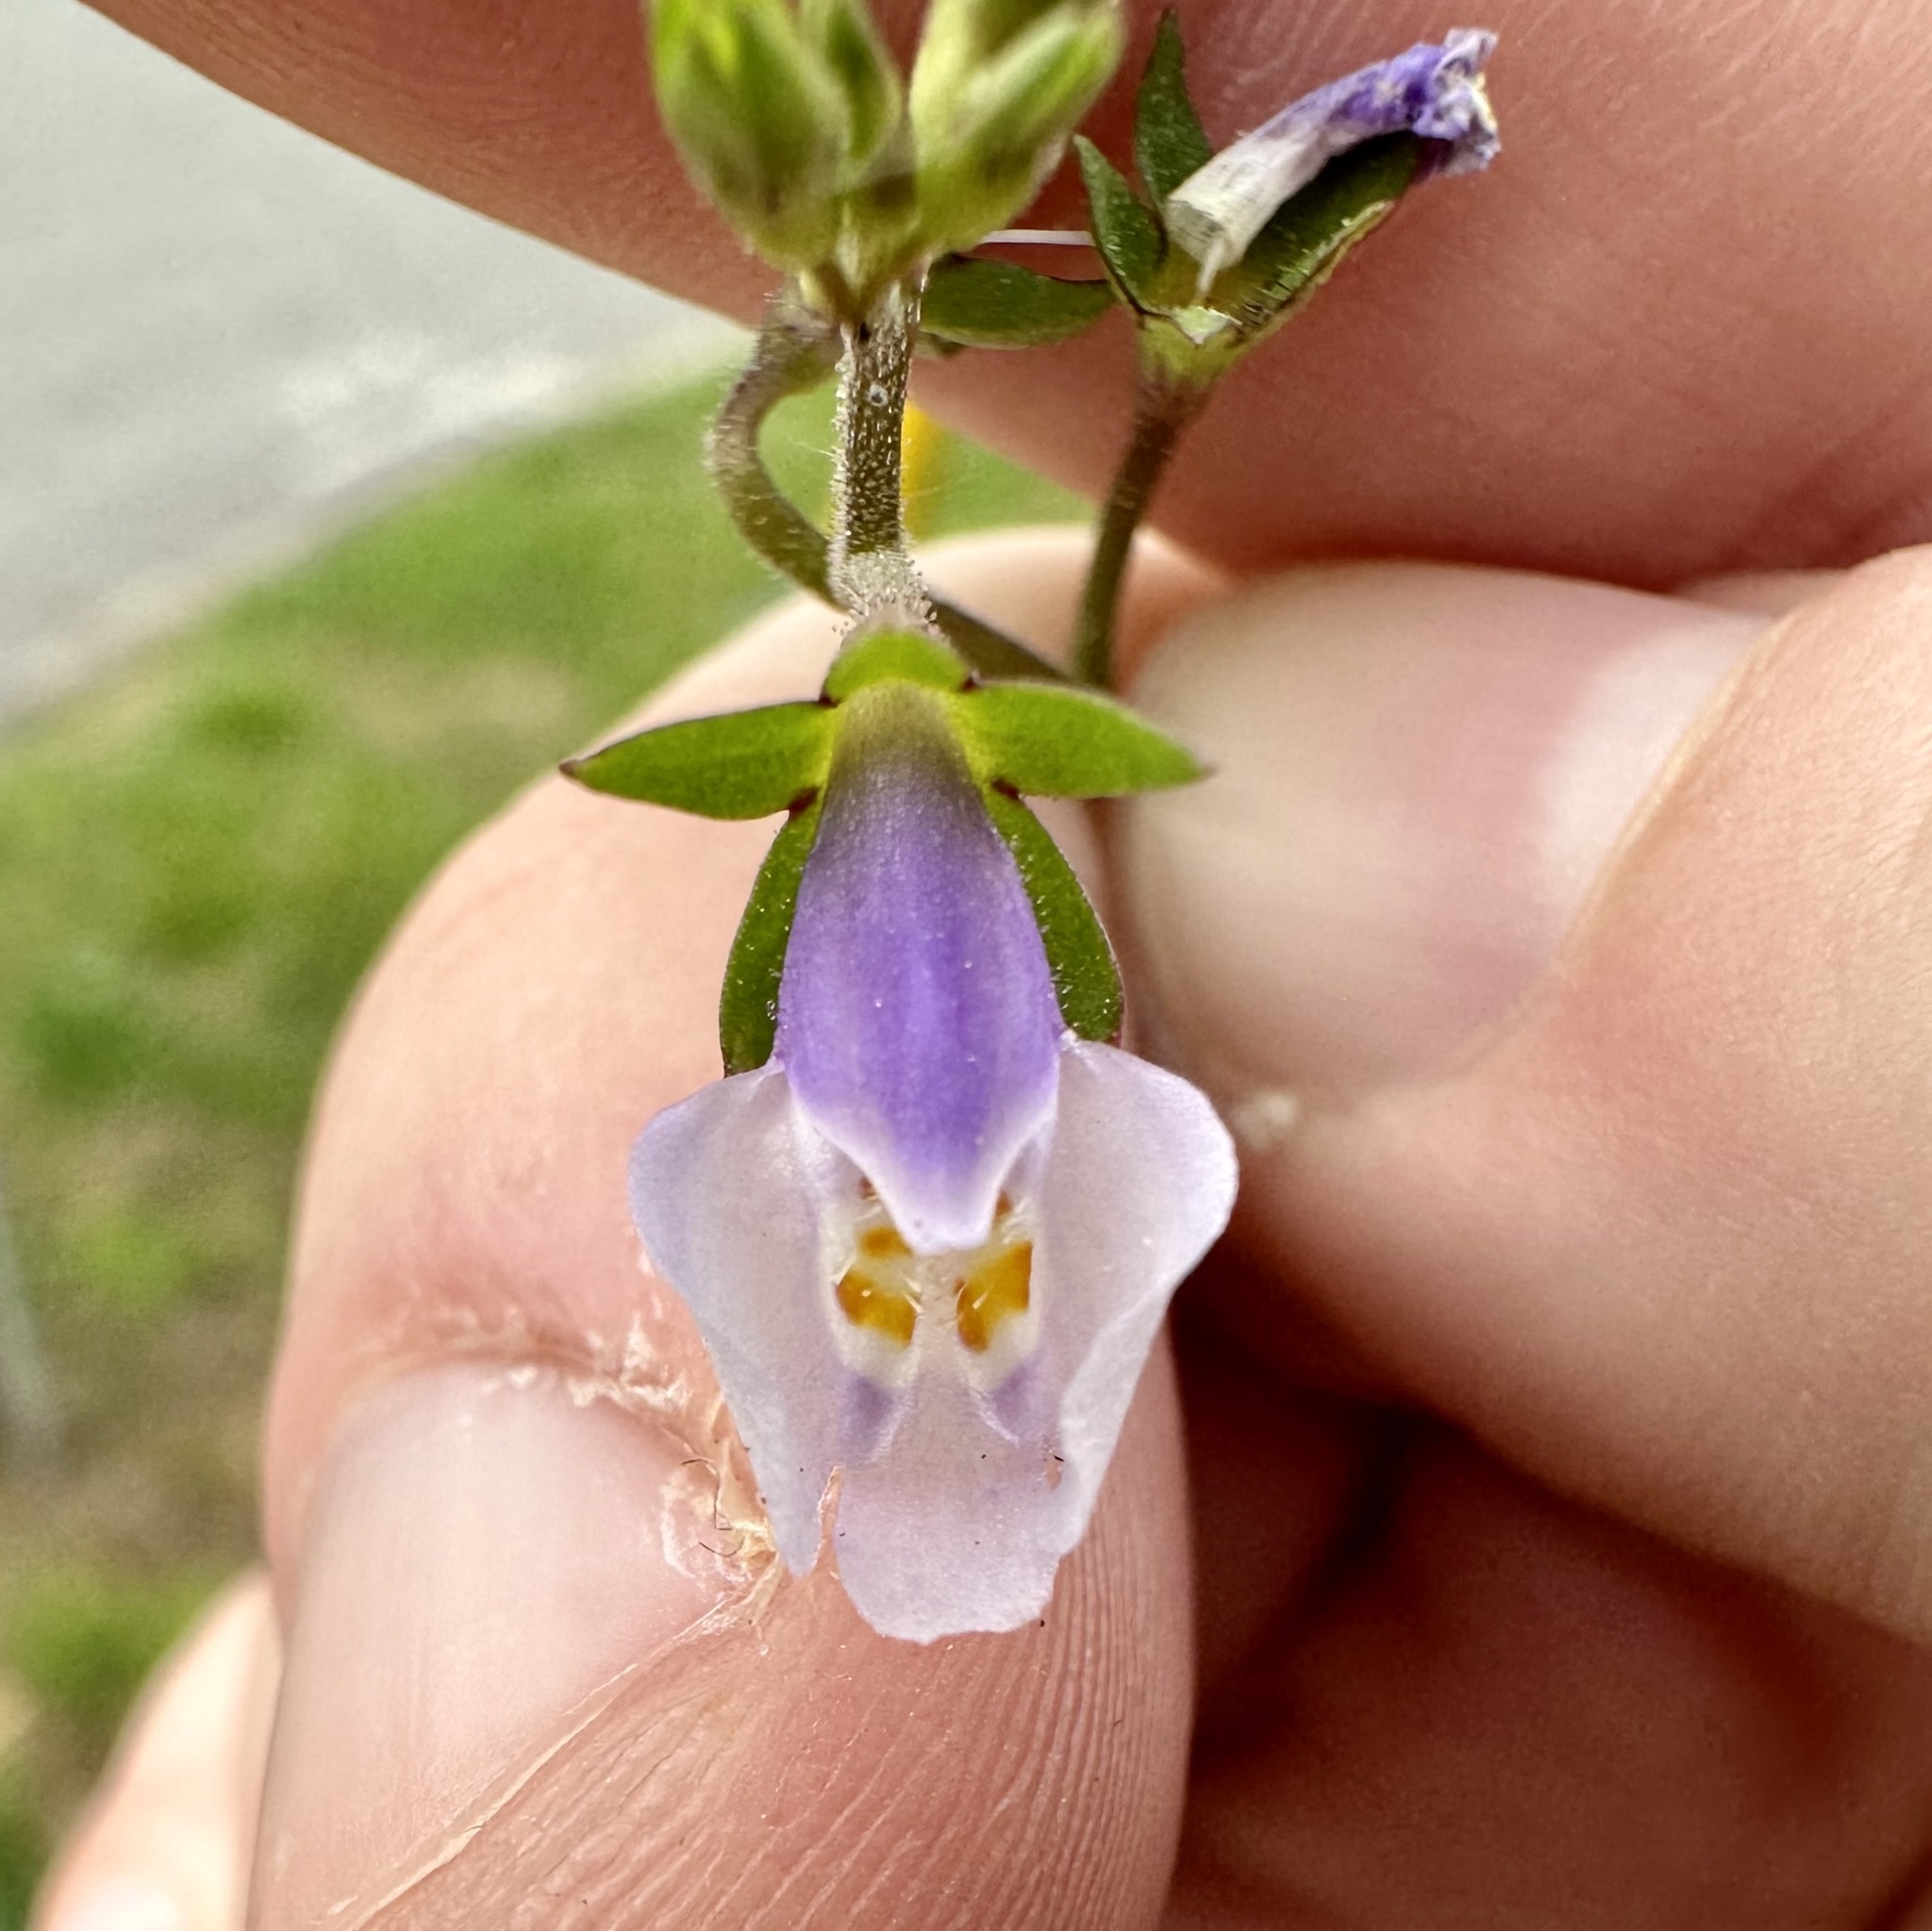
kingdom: Plantae
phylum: Tracheophyta
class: Magnoliopsida
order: Lamiales
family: Mazaceae
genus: Mazus
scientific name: Mazus pumilus
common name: Japanese mazus
